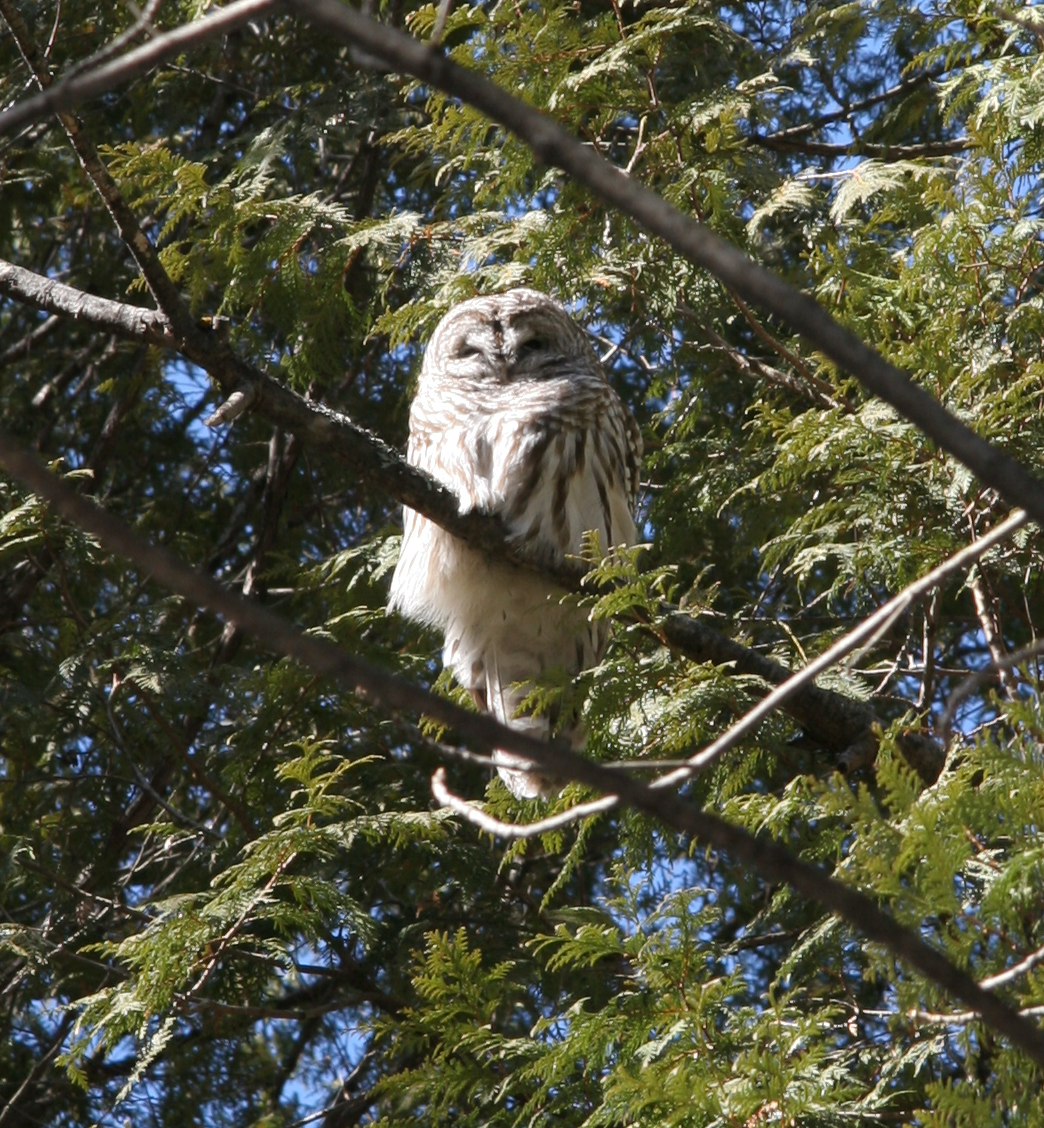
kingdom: Animalia
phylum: Chordata
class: Aves
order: Strigiformes
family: Strigidae
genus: Strix
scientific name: Strix varia
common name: Barred owl
